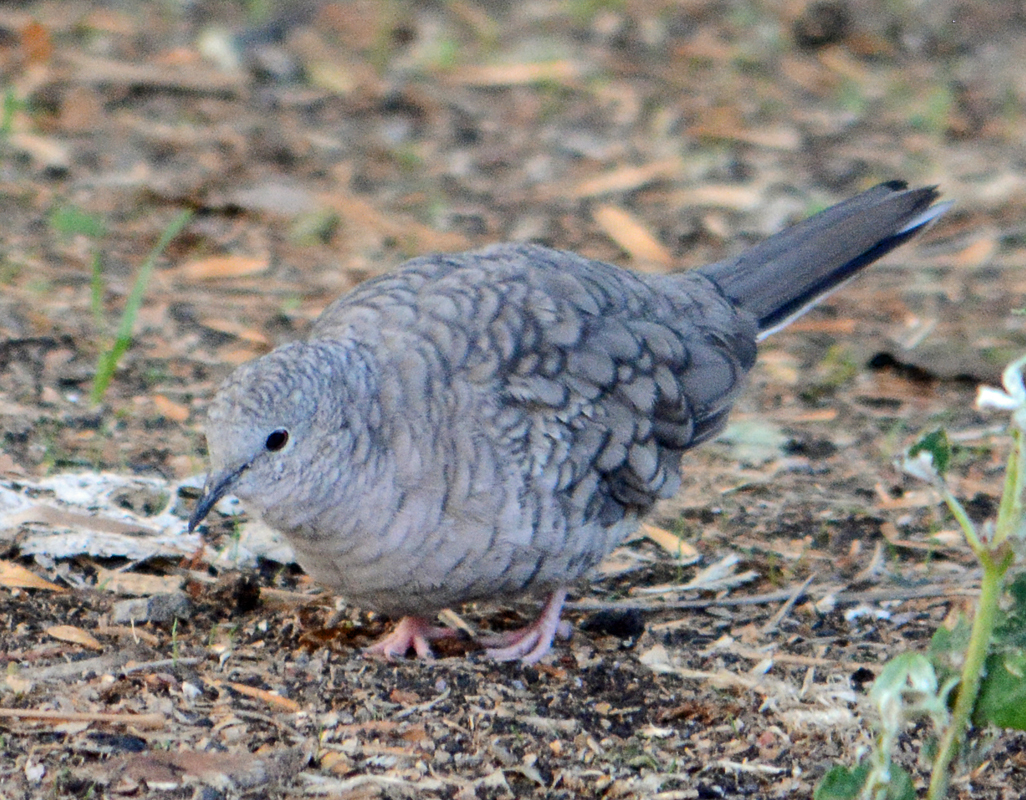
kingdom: Animalia
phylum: Chordata
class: Aves
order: Columbiformes
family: Columbidae
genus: Columbina
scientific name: Columbina inca
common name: Inca dove
